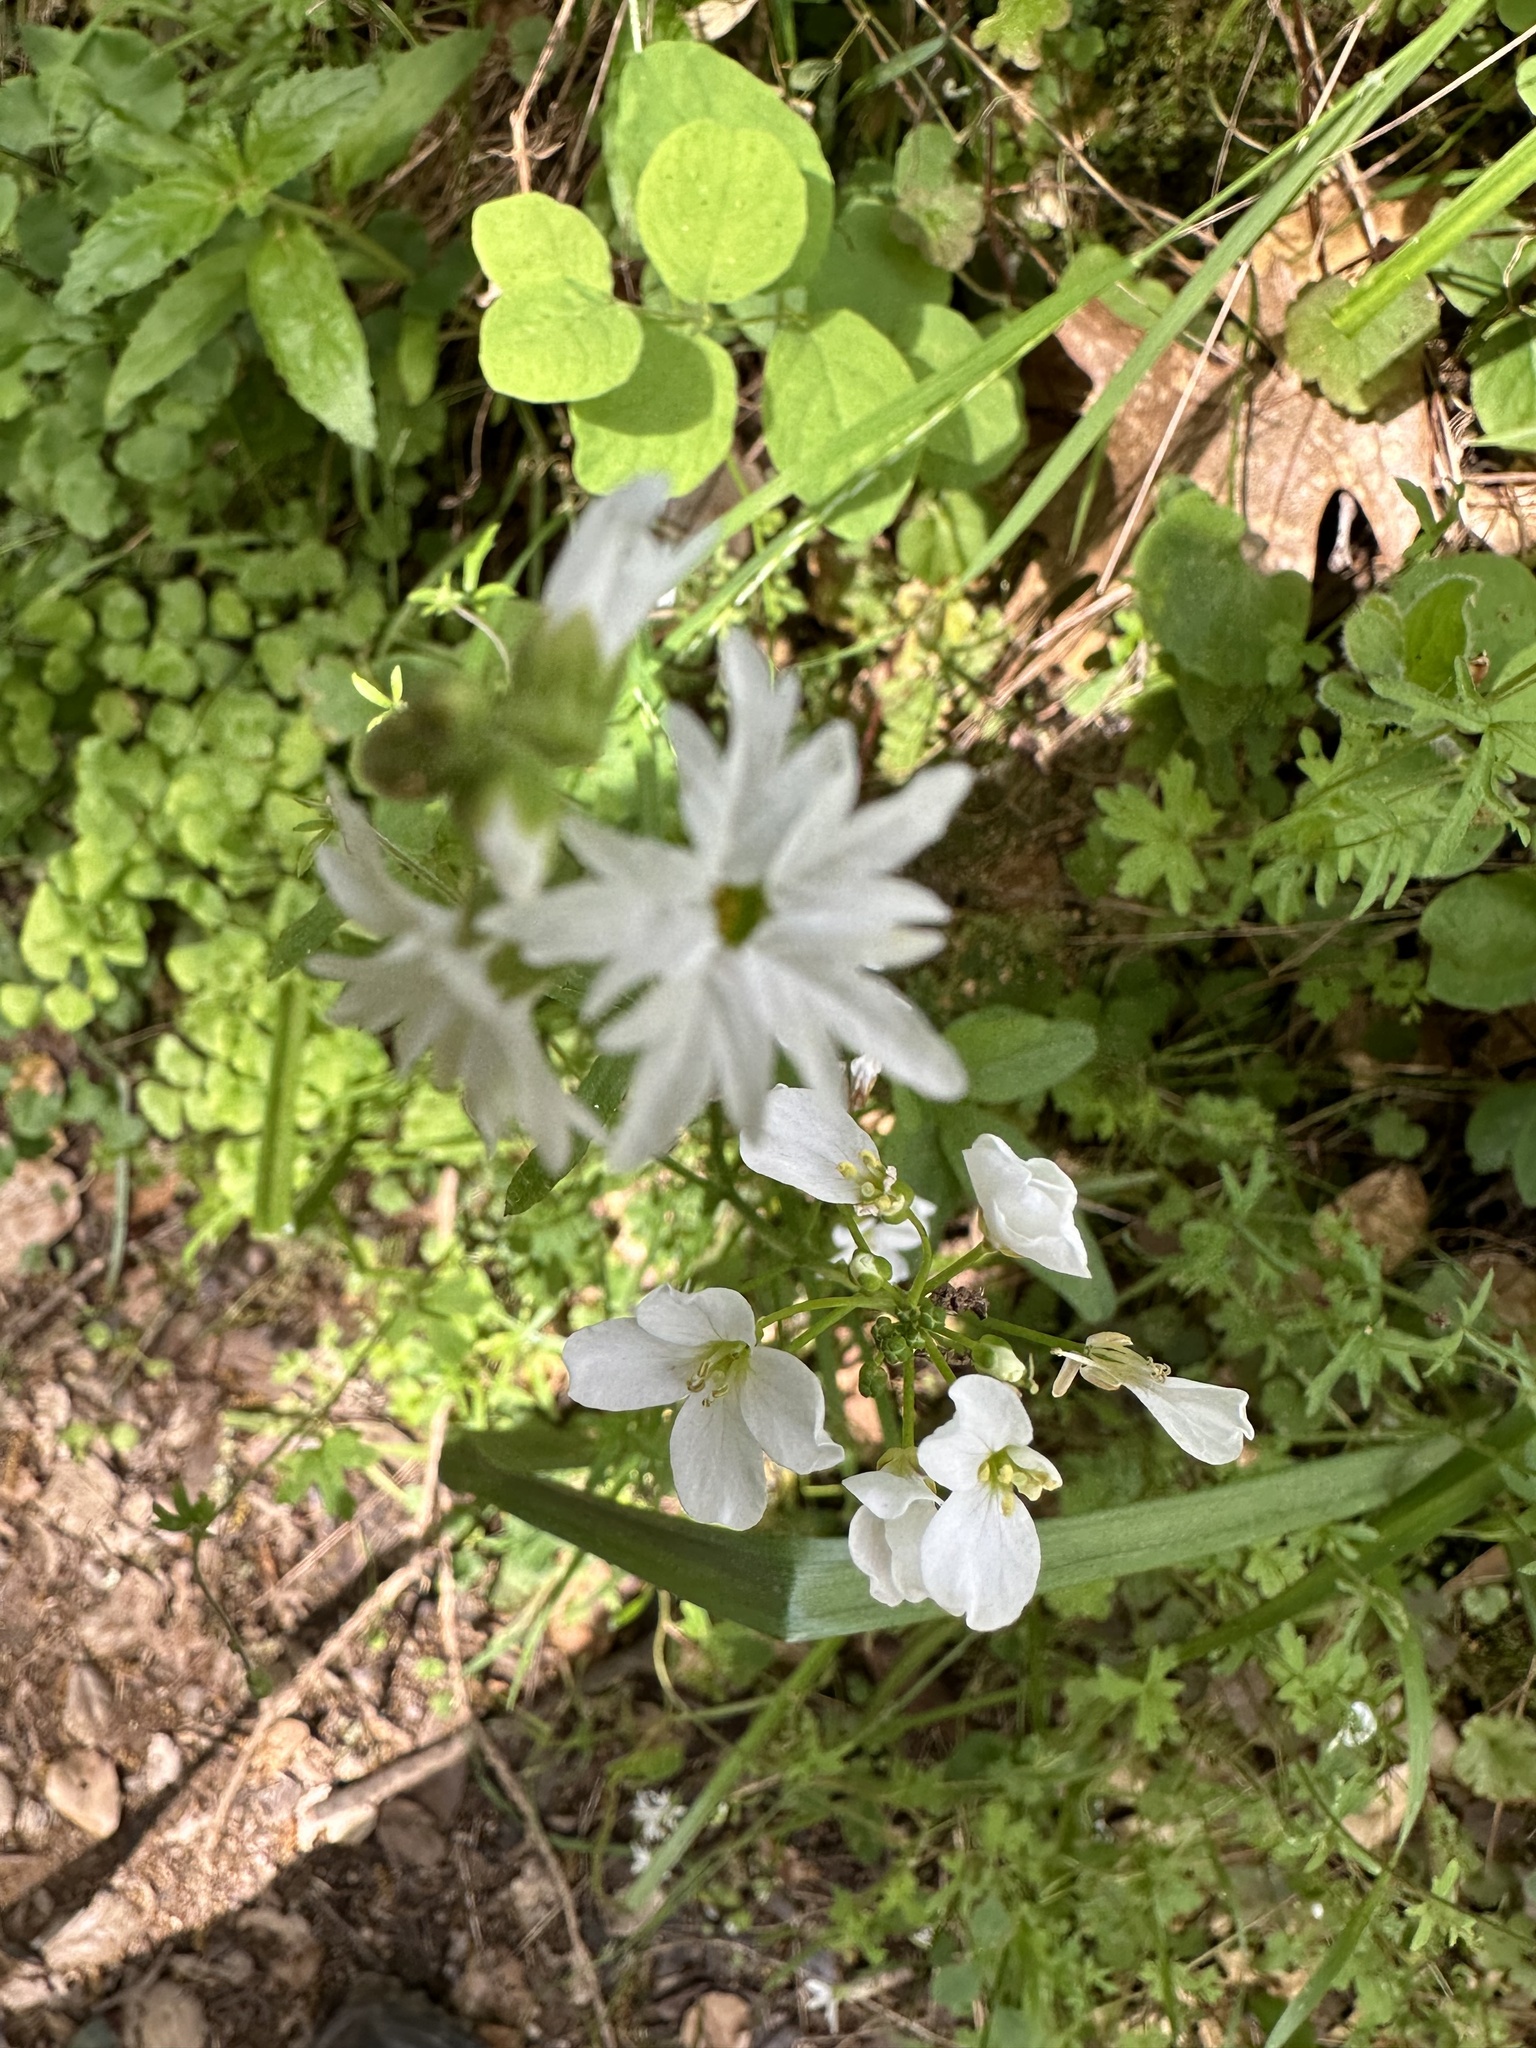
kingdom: Plantae
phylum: Tracheophyta
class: Magnoliopsida
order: Saxifragales
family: Saxifragaceae
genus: Lithophragma
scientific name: Lithophragma affine
